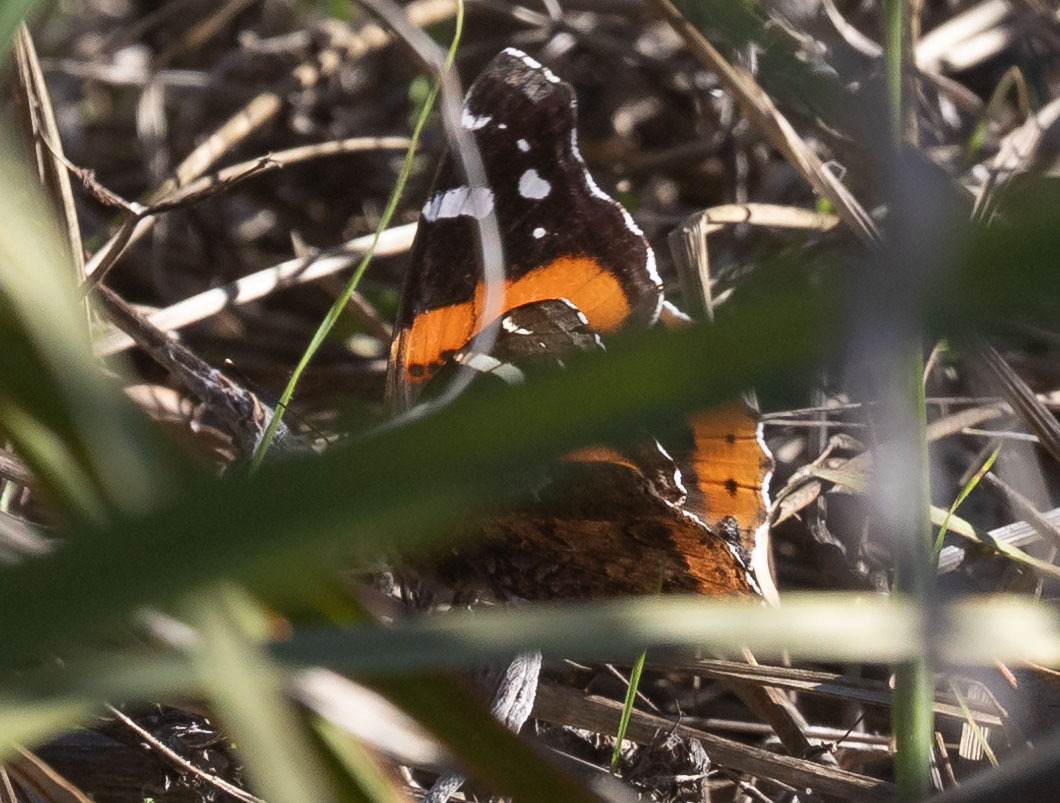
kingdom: Animalia
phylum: Arthropoda
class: Insecta
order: Lepidoptera
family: Nymphalidae
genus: Vanessa
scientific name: Vanessa atalanta
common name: Red admiral
